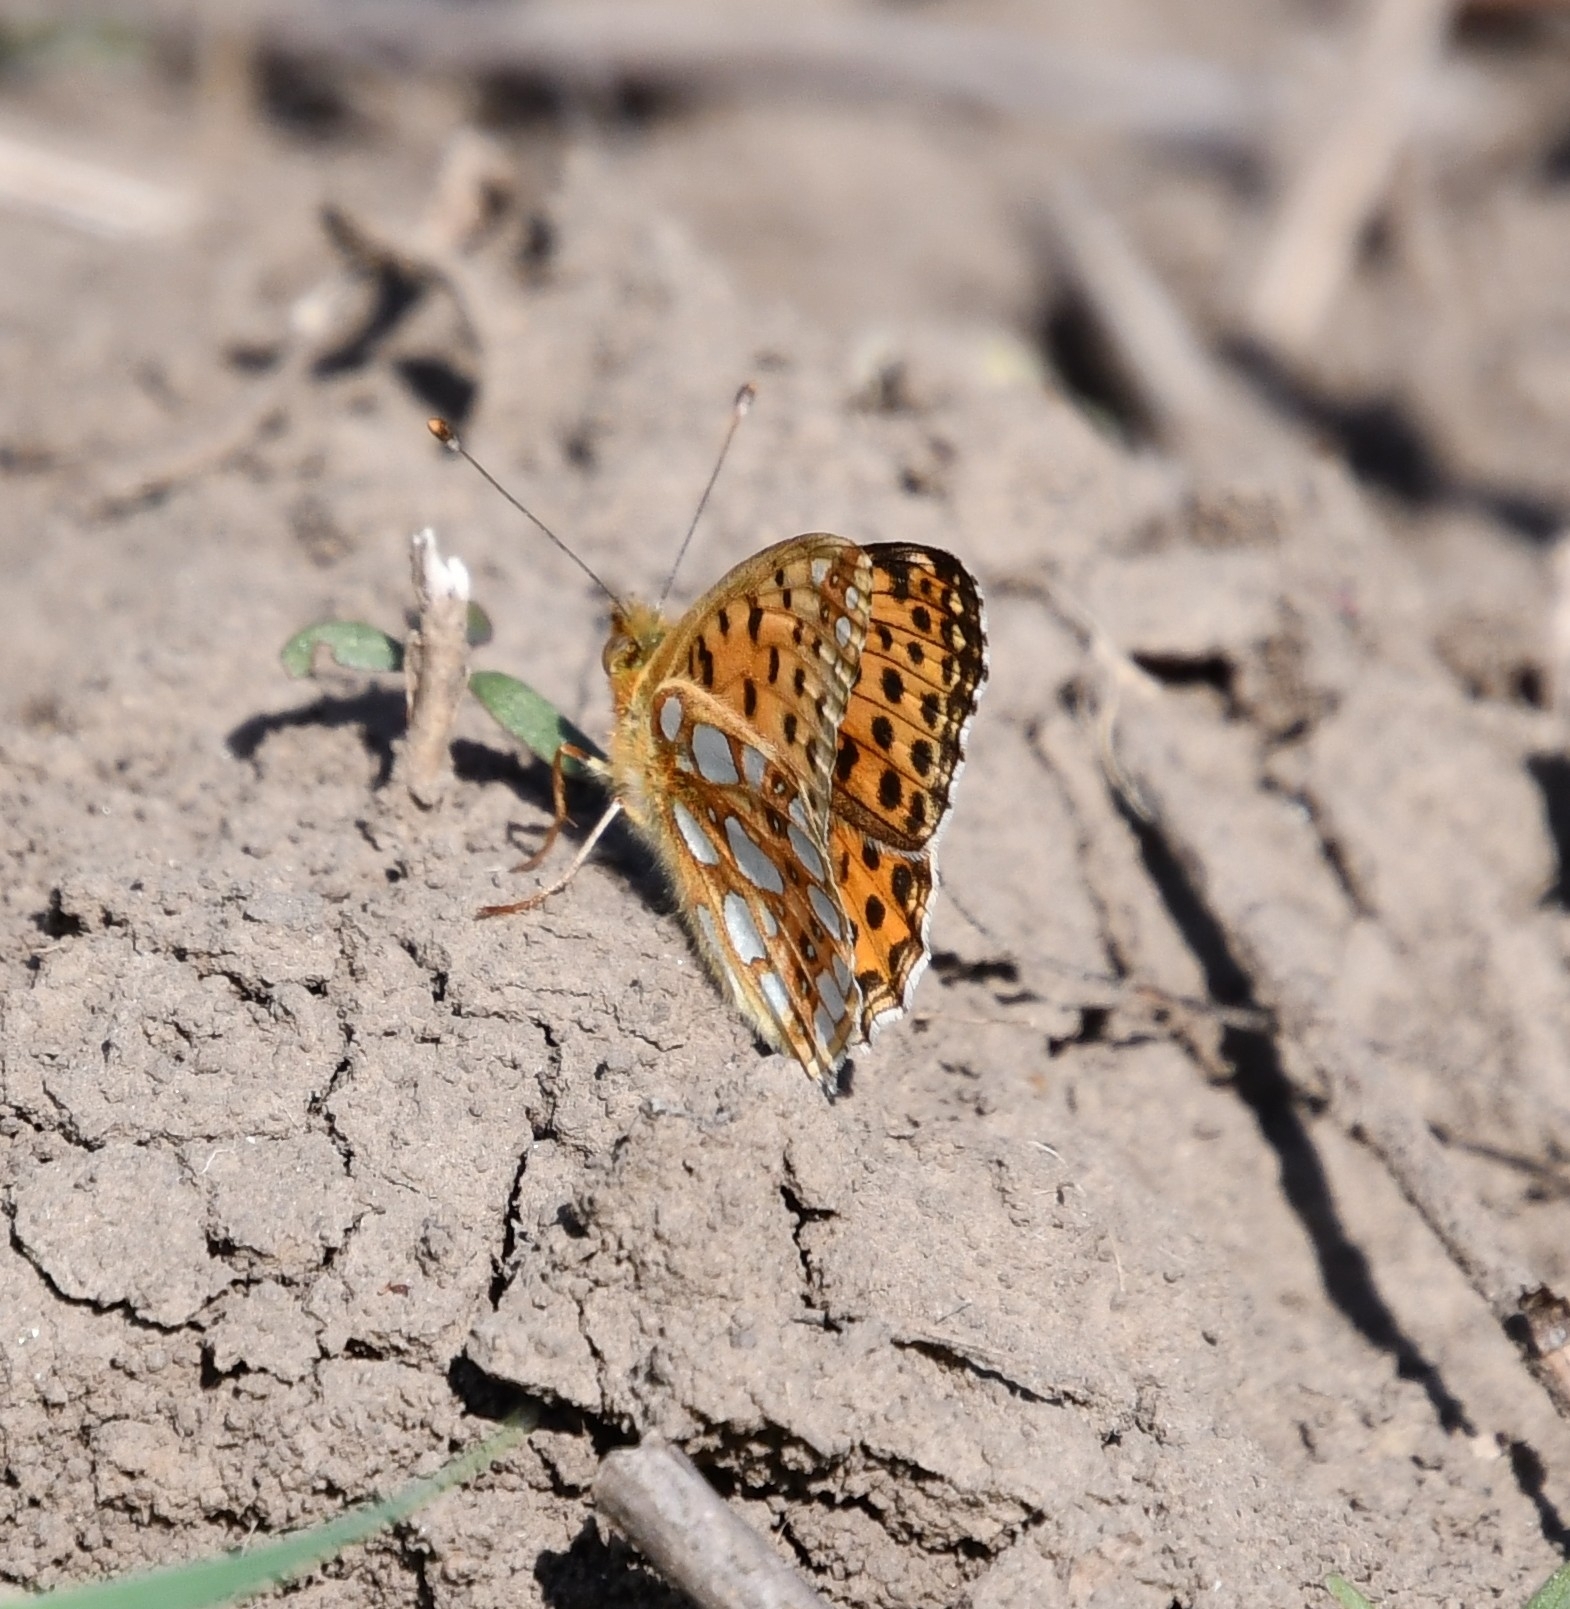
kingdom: Animalia
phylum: Arthropoda
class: Insecta
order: Lepidoptera
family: Nymphalidae
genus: Issoria
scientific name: Issoria lathonia
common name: Queen of spain fritillary
